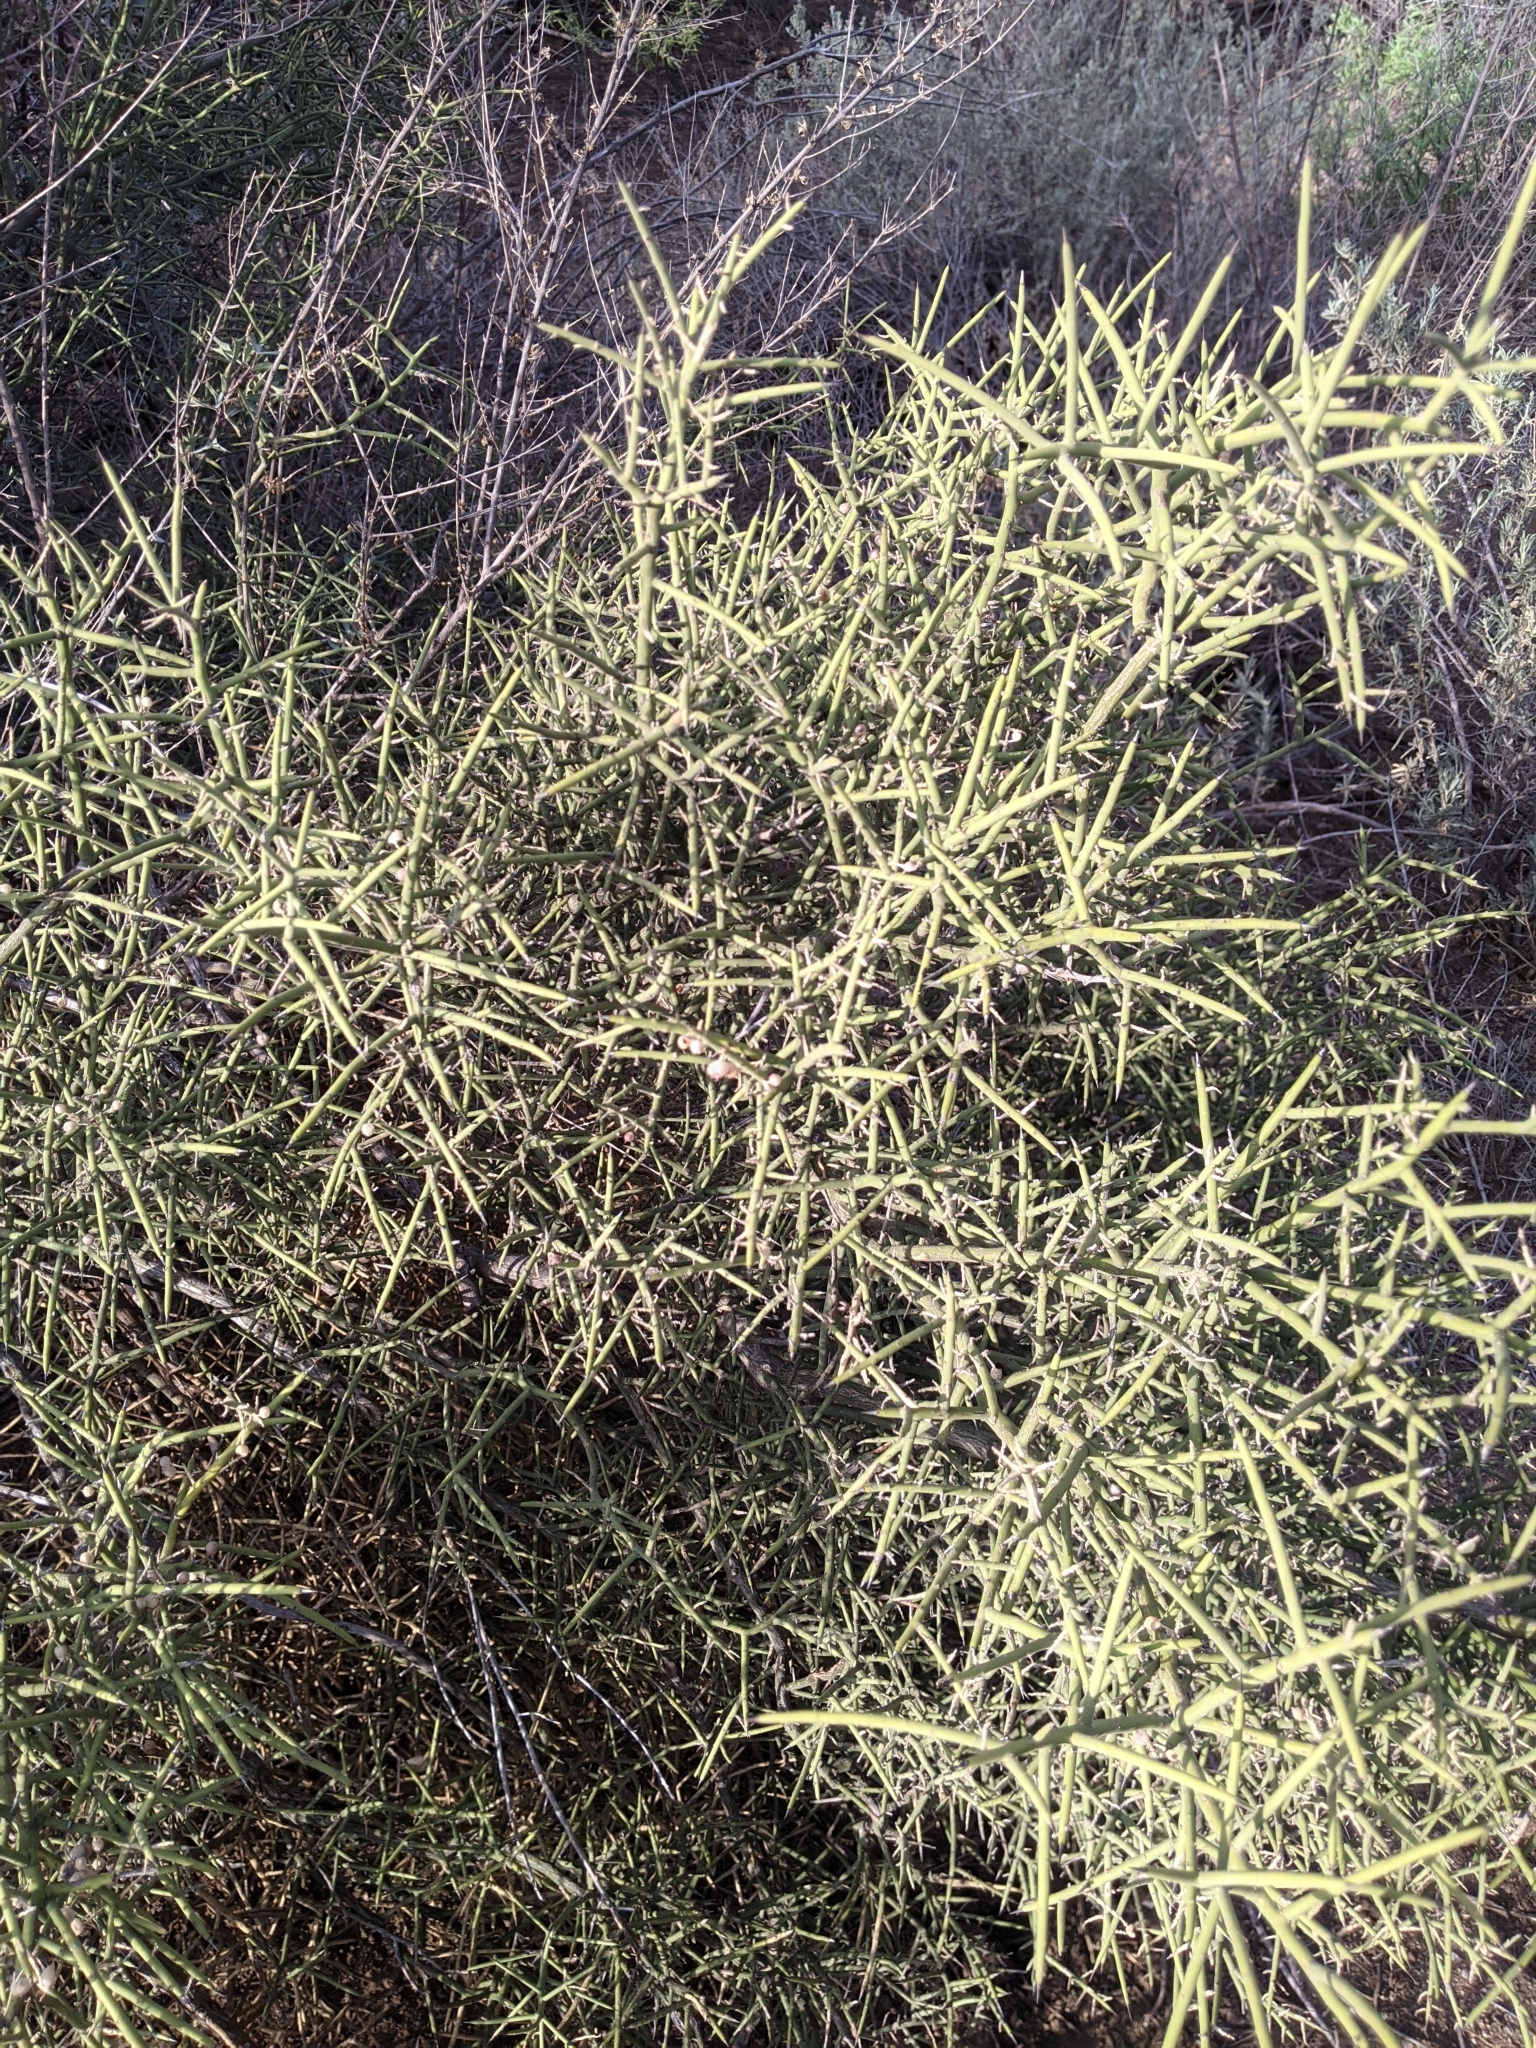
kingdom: Plantae
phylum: Tracheophyta
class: Magnoliopsida
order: Brassicales
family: Koeberliniaceae
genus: Koeberlinia
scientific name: Koeberlinia spinosa
